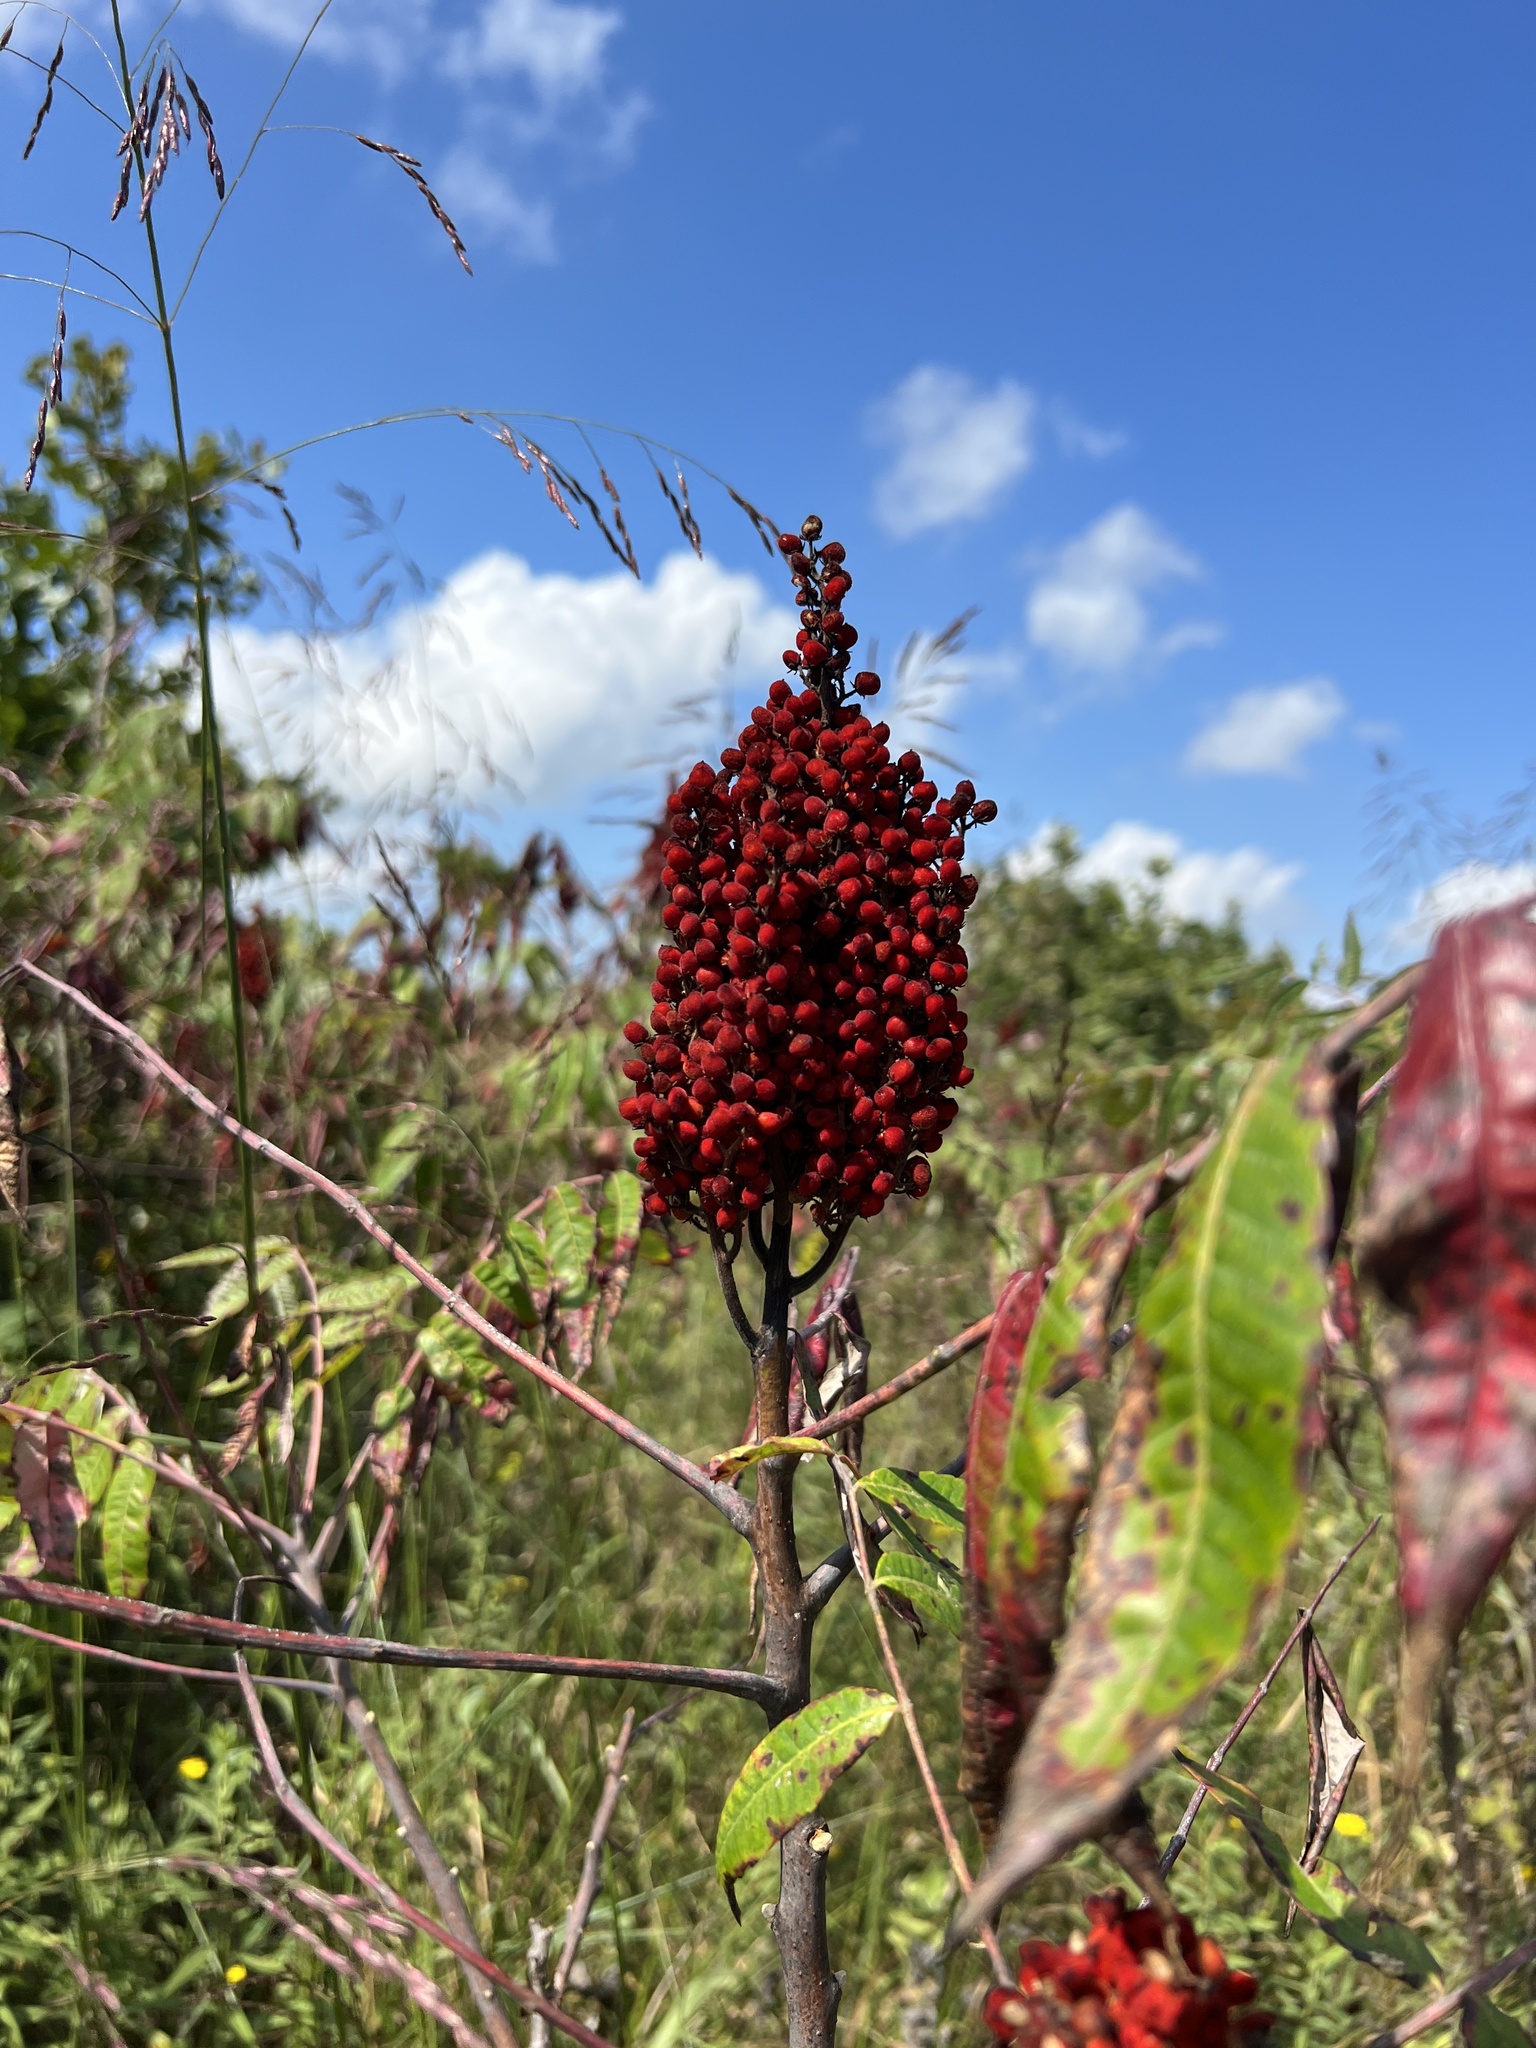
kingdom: Plantae
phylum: Tracheophyta
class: Magnoliopsida
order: Sapindales
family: Anacardiaceae
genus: Rhus
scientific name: Rhus glabra
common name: Scarlet sumac
